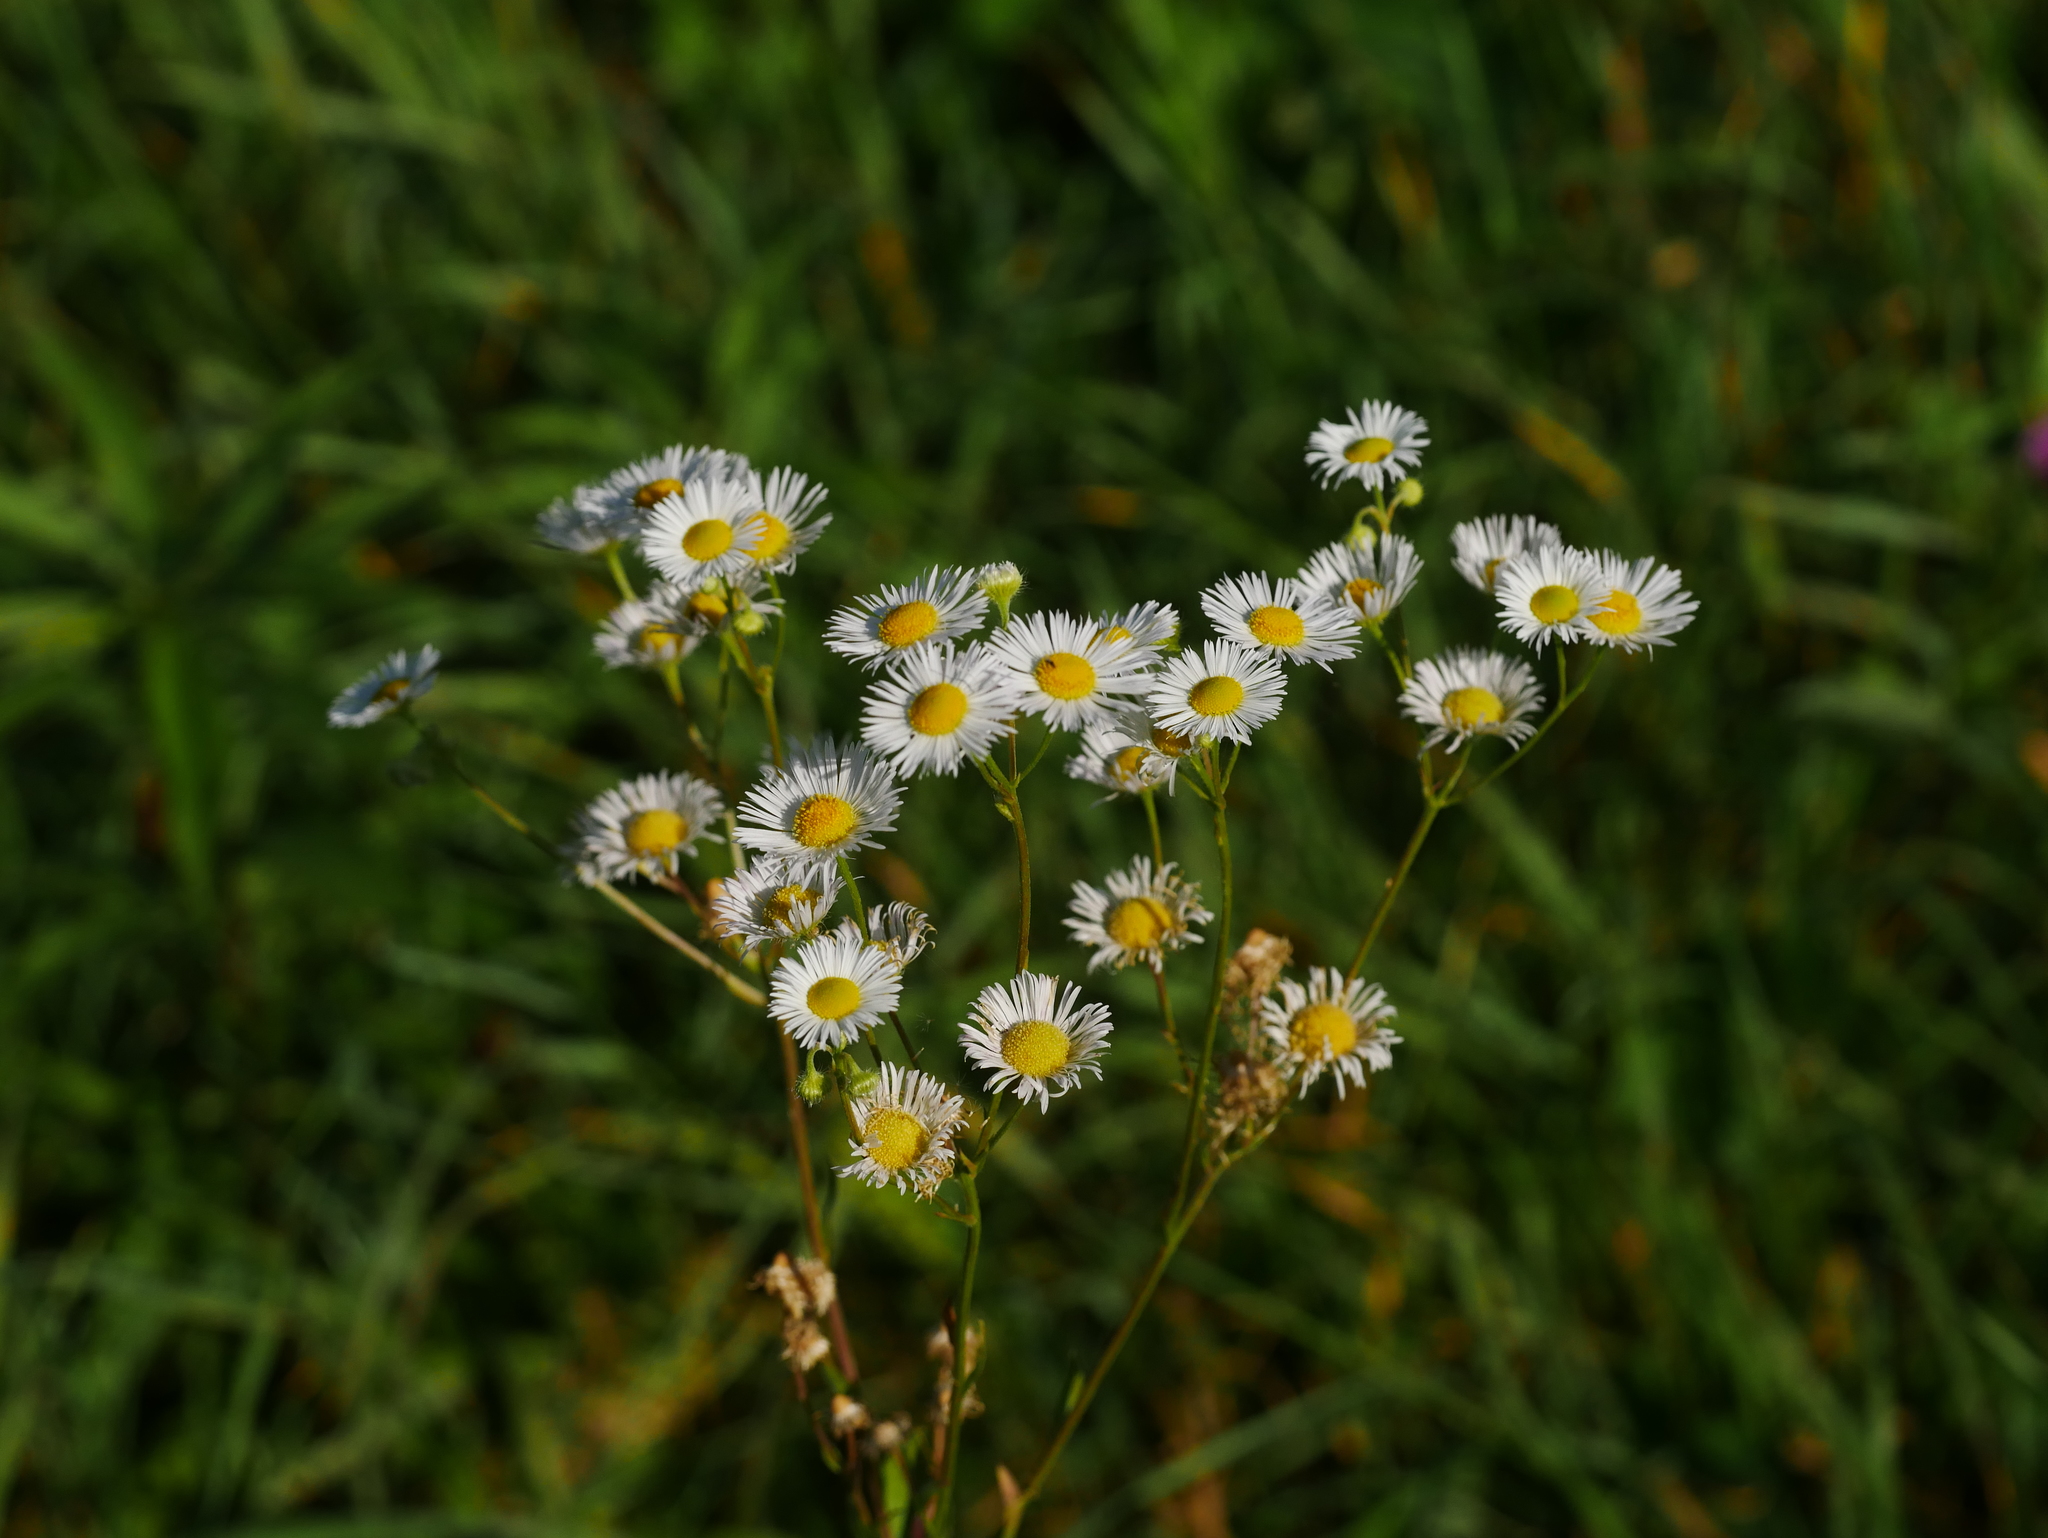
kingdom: Plantae
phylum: Tracheophyta
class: Magnoliopsida
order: Asterales
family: Asteraceae
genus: Erigeron
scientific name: Erigeron annuus
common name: Tall fleabane
